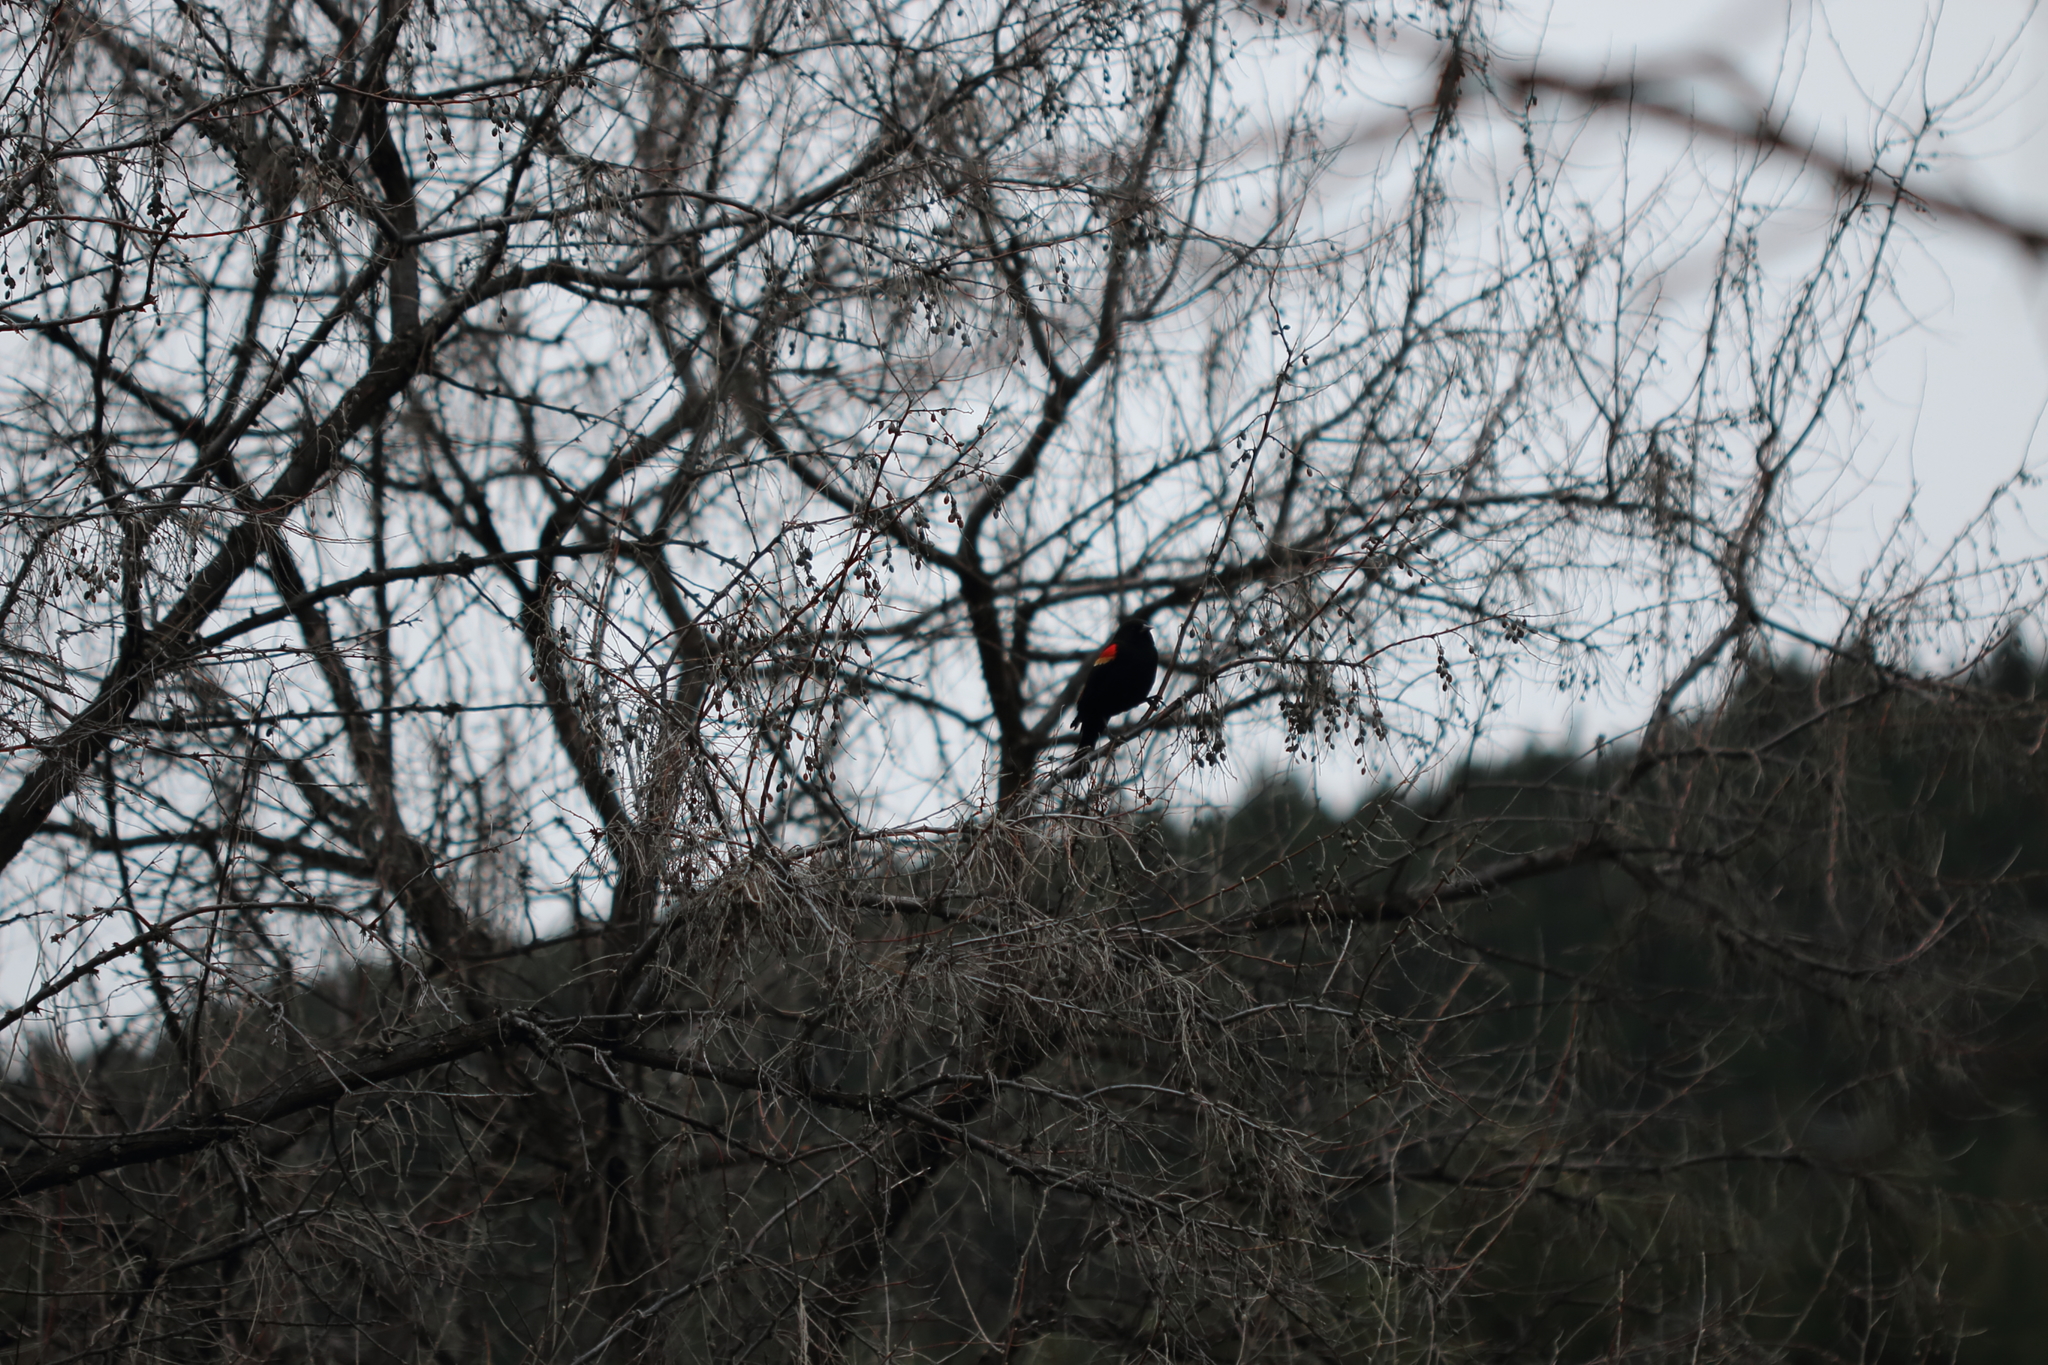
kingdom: Animalia
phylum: Chordata
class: Aves
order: Passeriformes
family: Icteridae
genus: Agelaius
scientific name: Agelaius phoeniceus
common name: Red-winged blackbird
